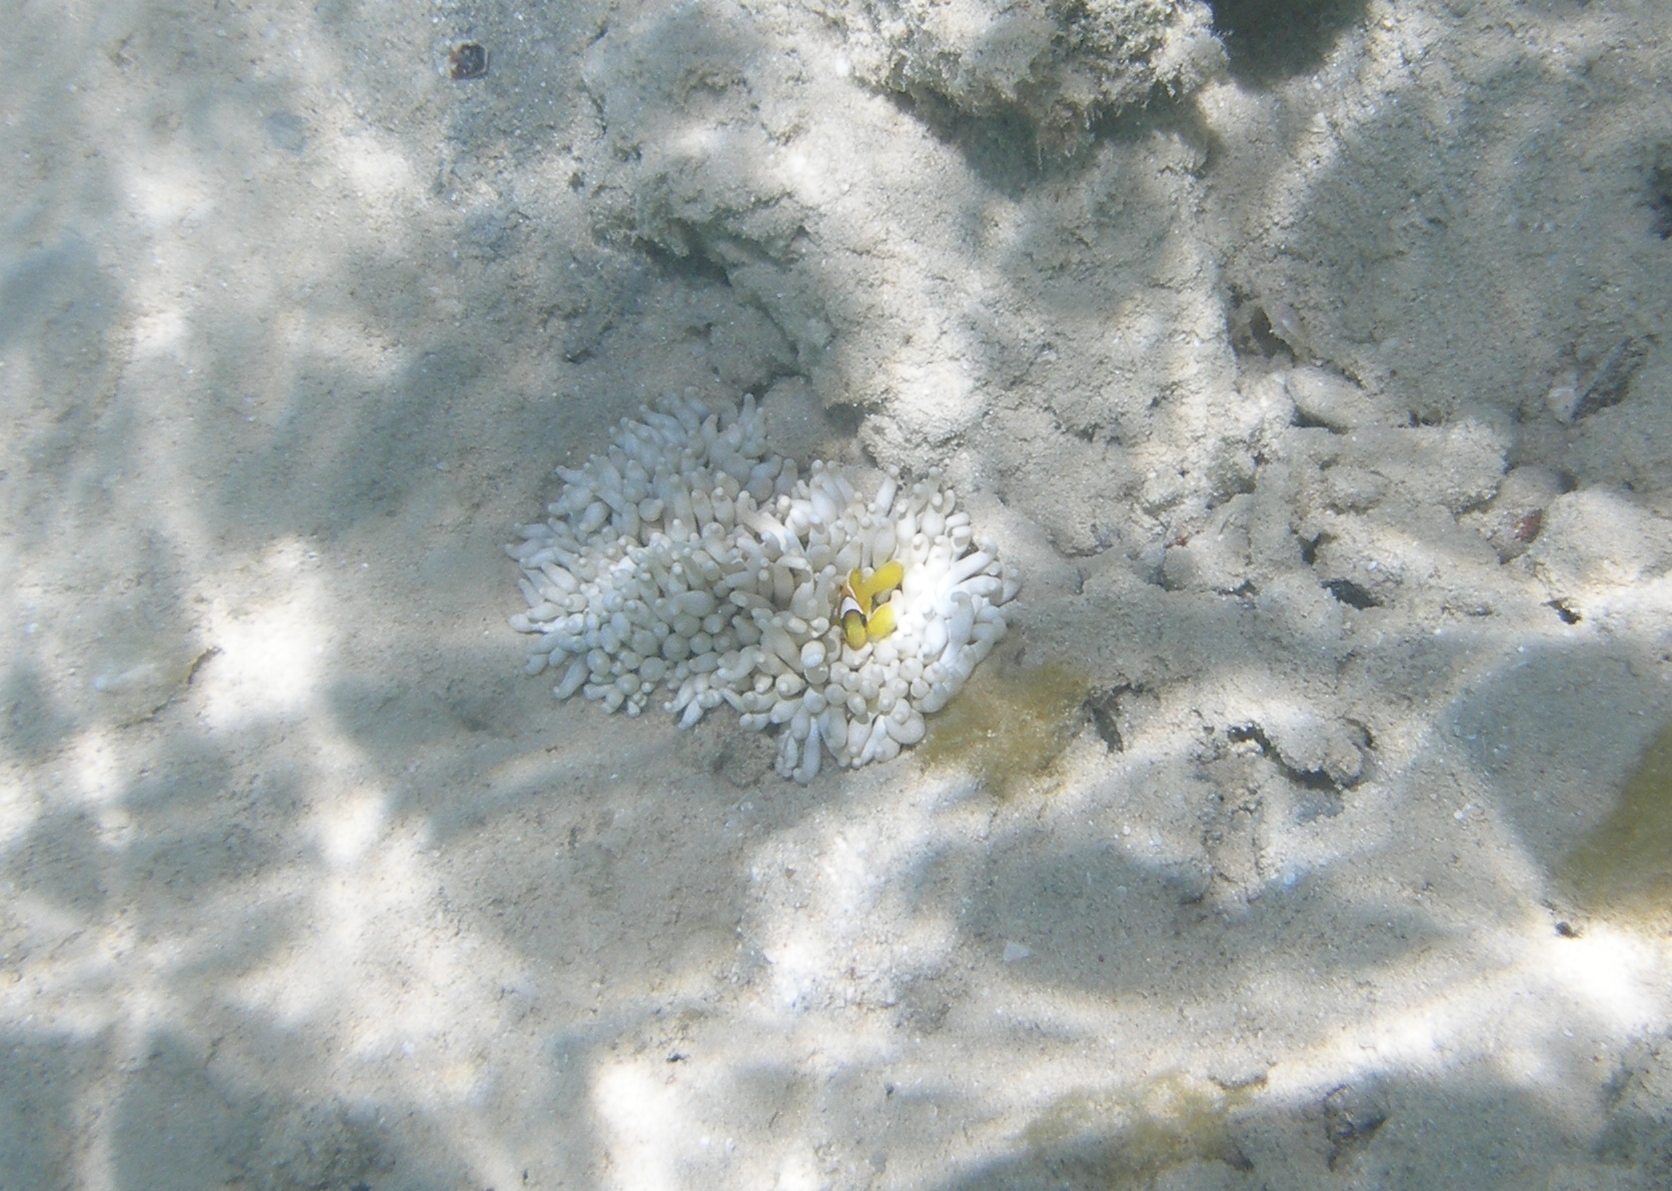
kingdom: Animalia
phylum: Chordata
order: Perciformes
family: Pomacentridae
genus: Amphiprion
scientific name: Amphiprion bicinctus
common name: Two-banded anemonefish
